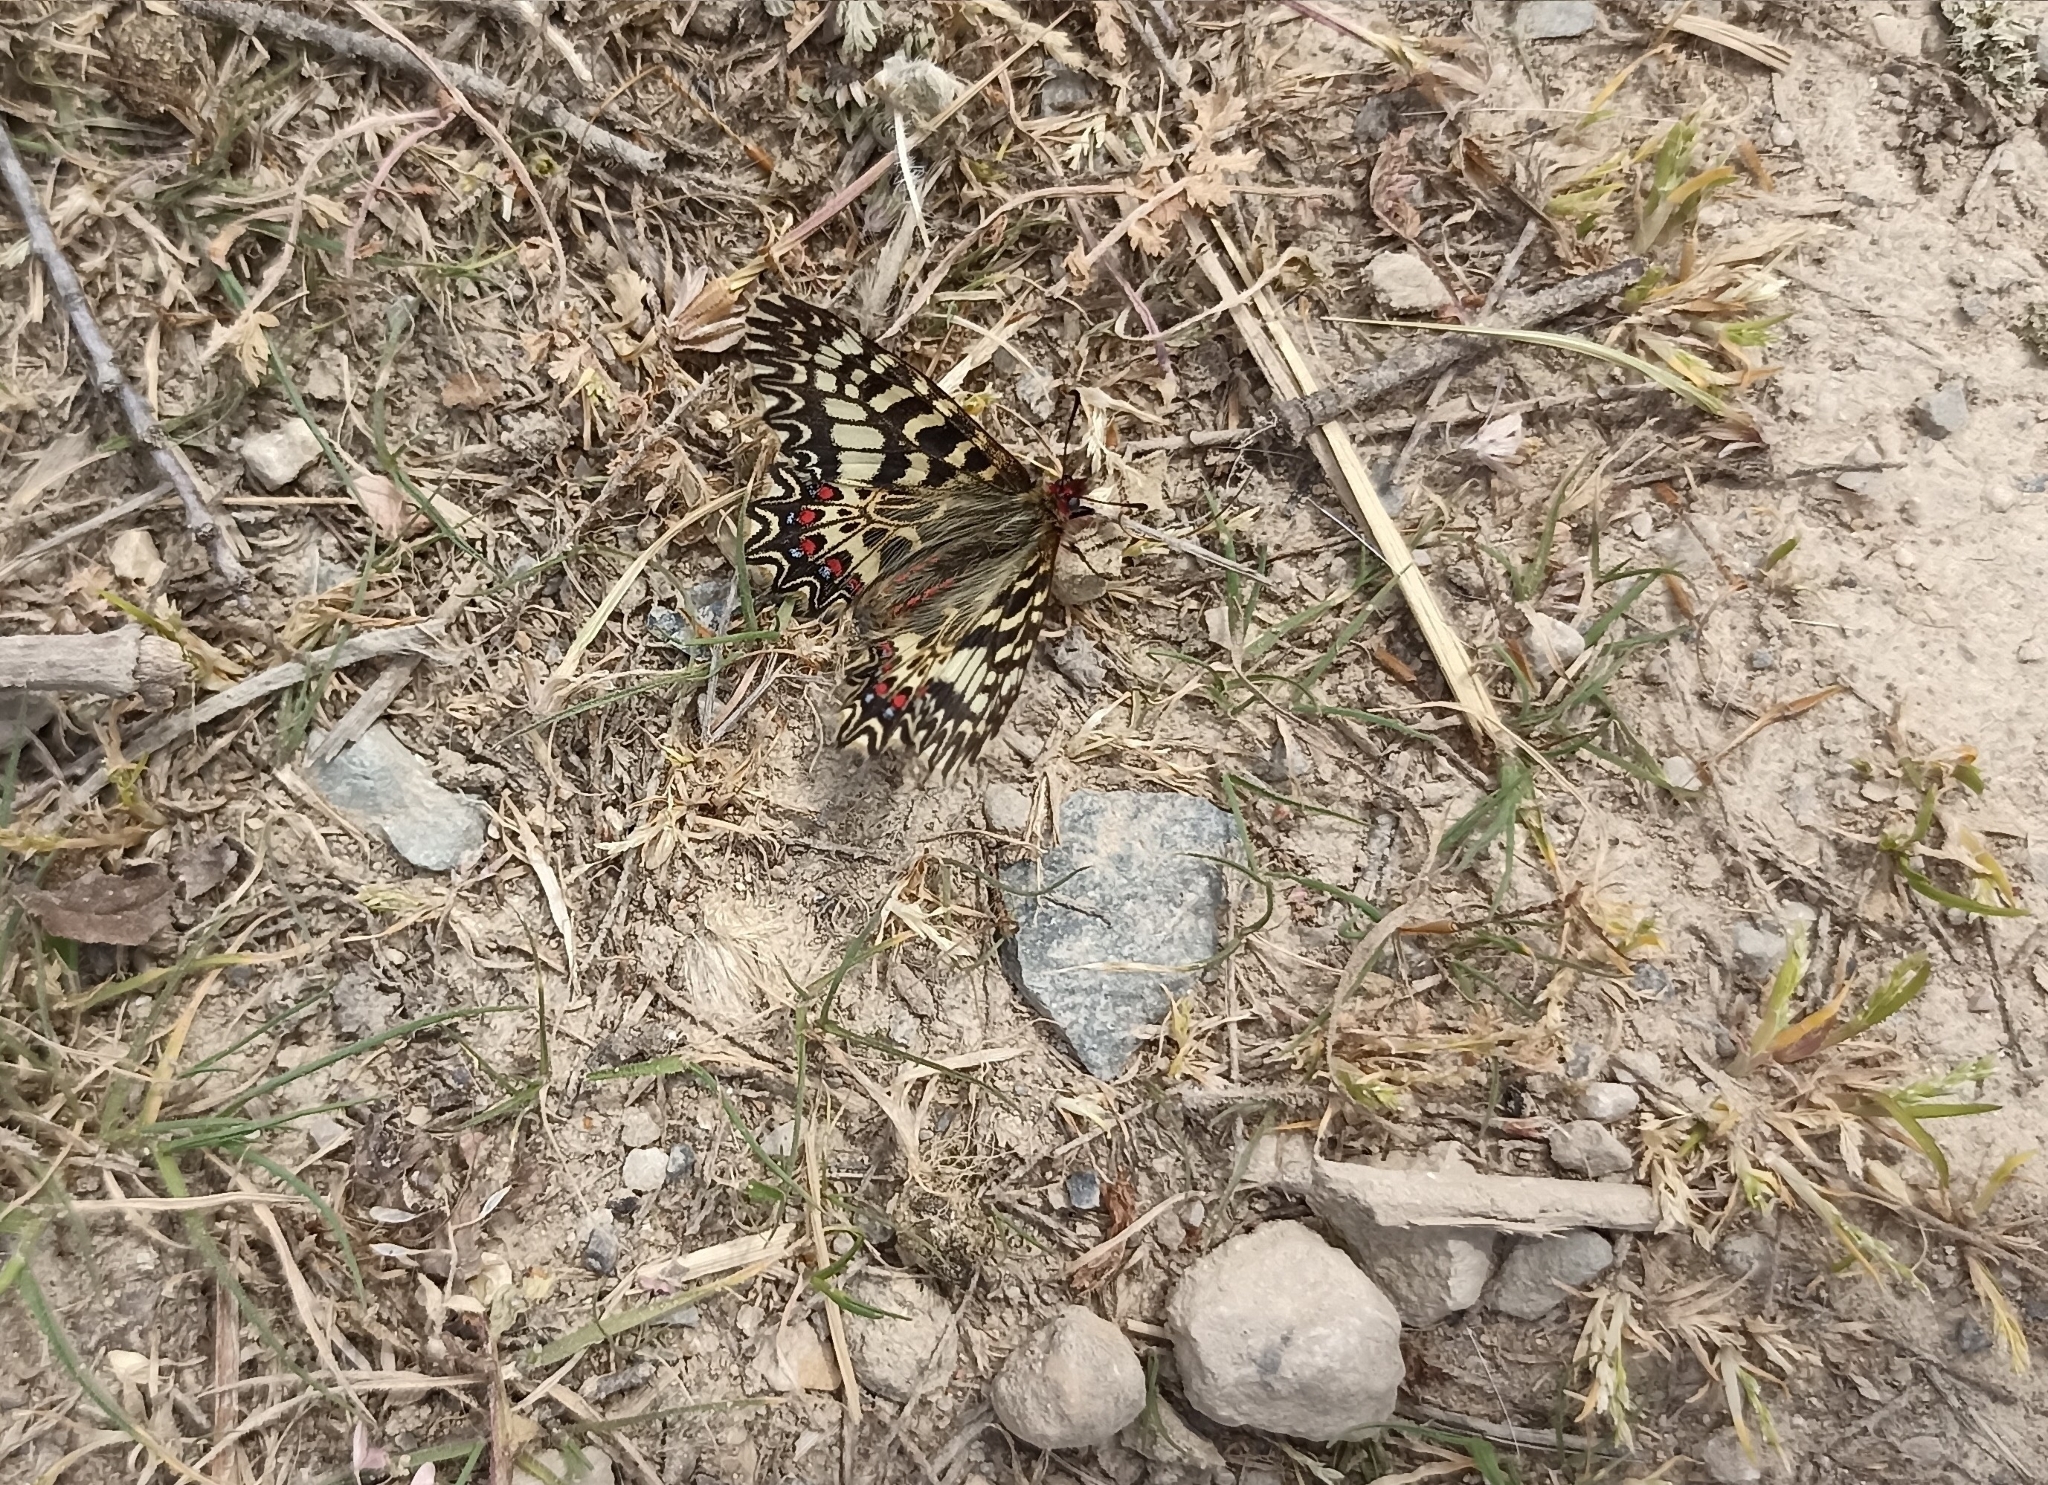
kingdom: Animalia
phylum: Arthropoda
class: Insecta
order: Lepidoptera
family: Papilionidae
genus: Zerynthia
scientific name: Zerynthia polyxena
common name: Southern festoon
